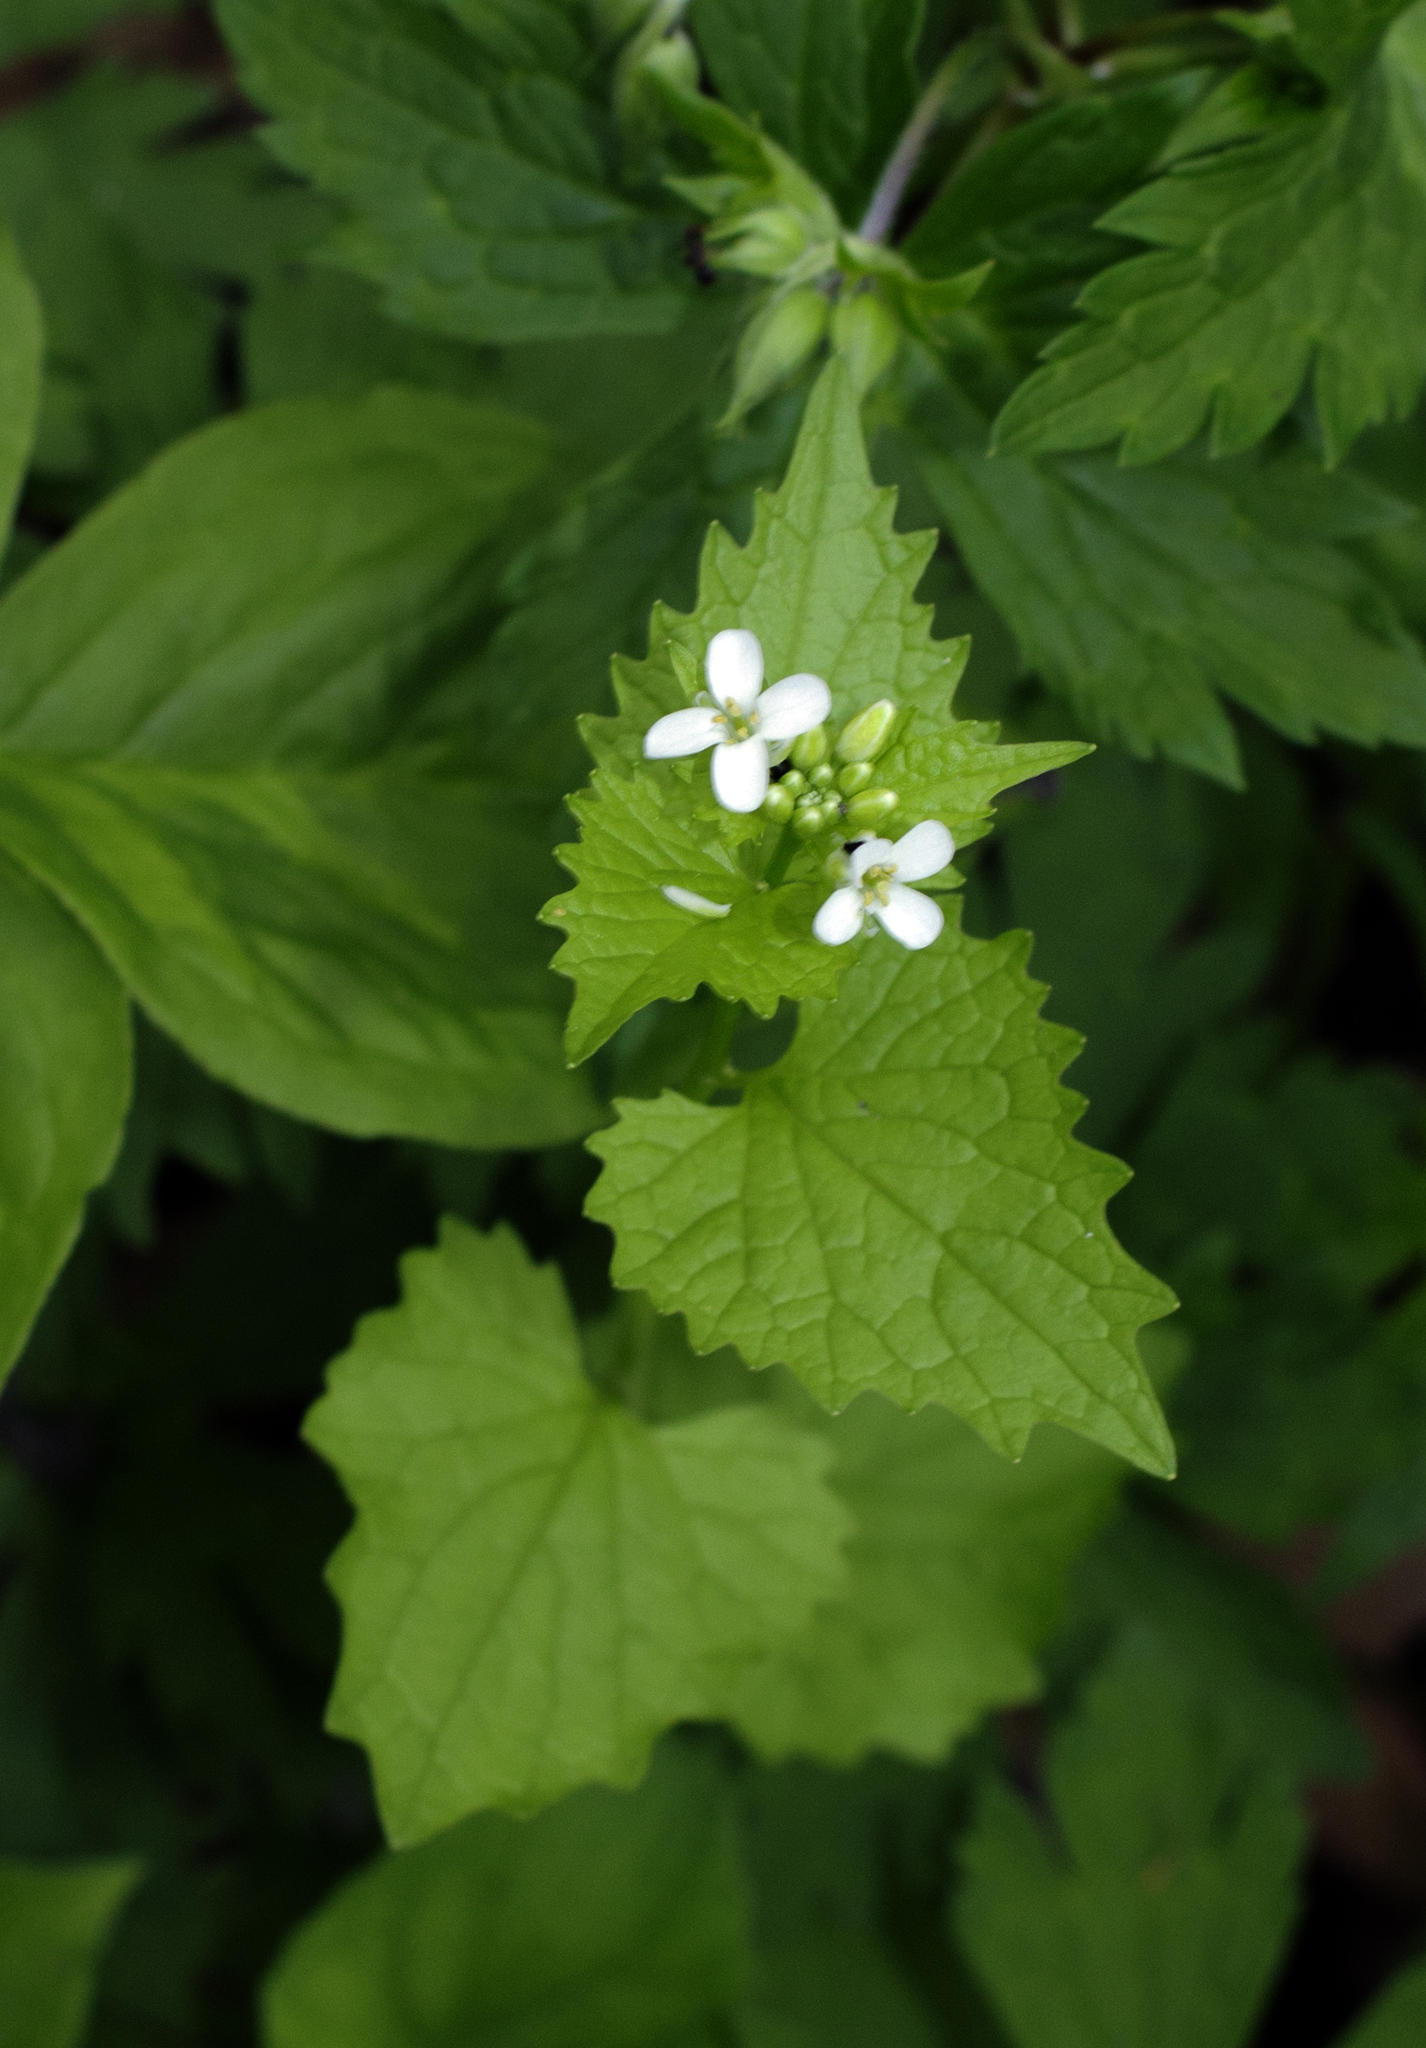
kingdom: Plantae
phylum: Tracheophyta
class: Magnoliopsida
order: Brassicales
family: Brassicaceae
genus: Alliaria
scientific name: Alliaria petiolata
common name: Garlic mustard
